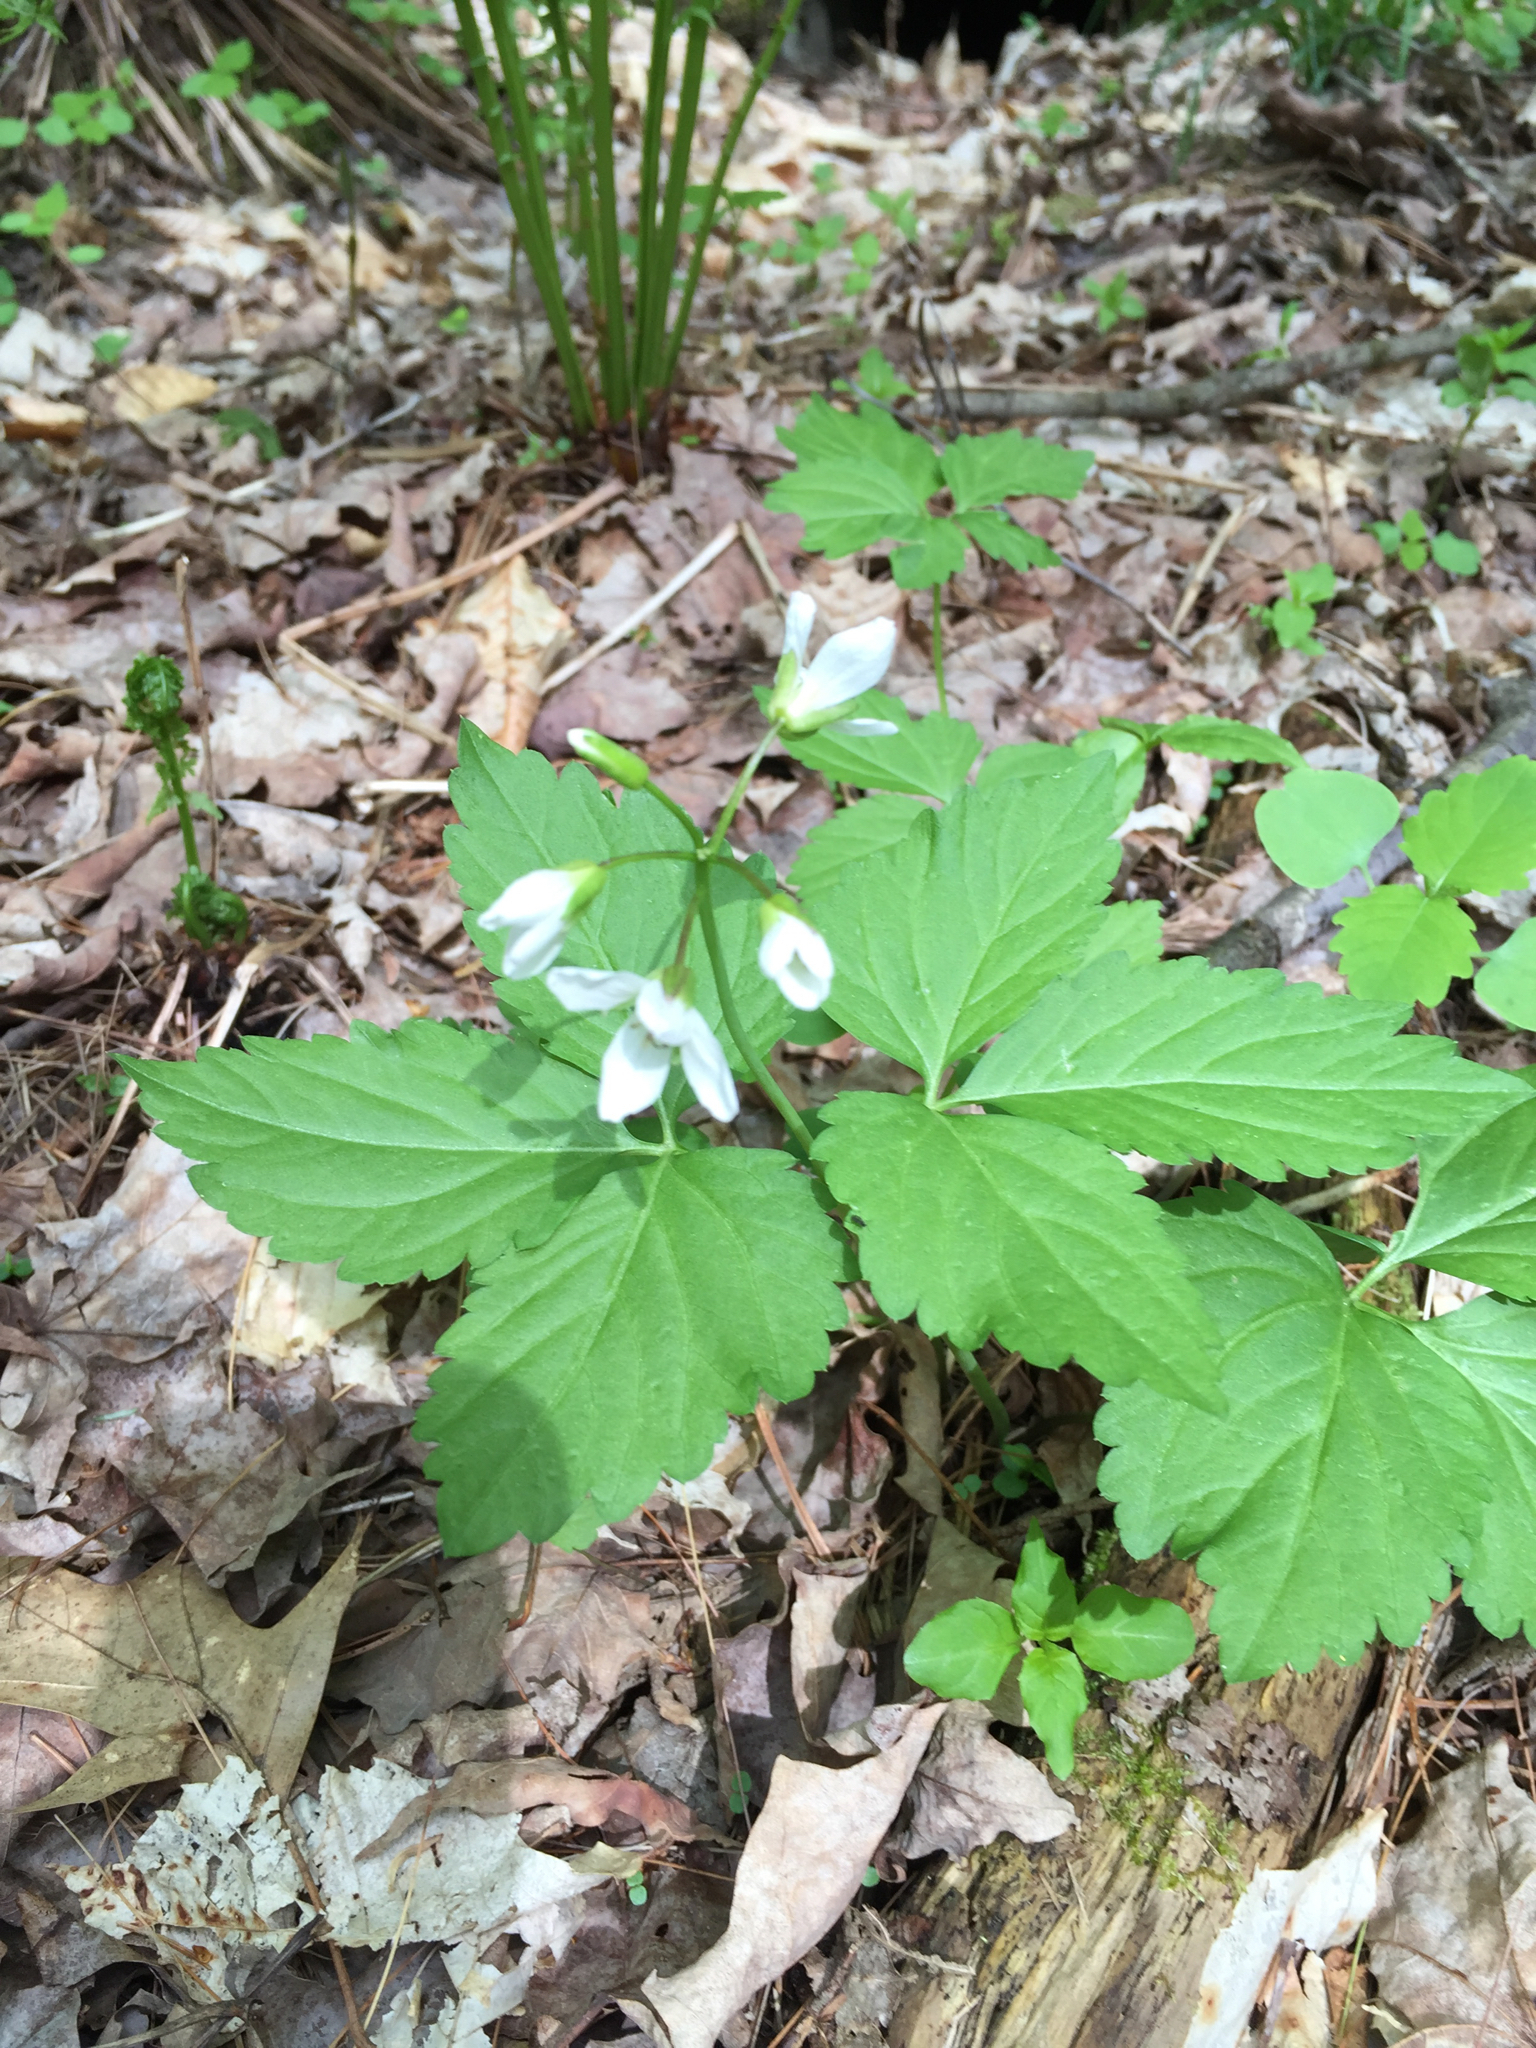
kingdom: Plantae
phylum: Tracheophyta
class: Magnoliopsida
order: Brassicales
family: Brassicaceae
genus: Cardamine
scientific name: Cardamine diphylla
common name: Broad-leaved toothwort
